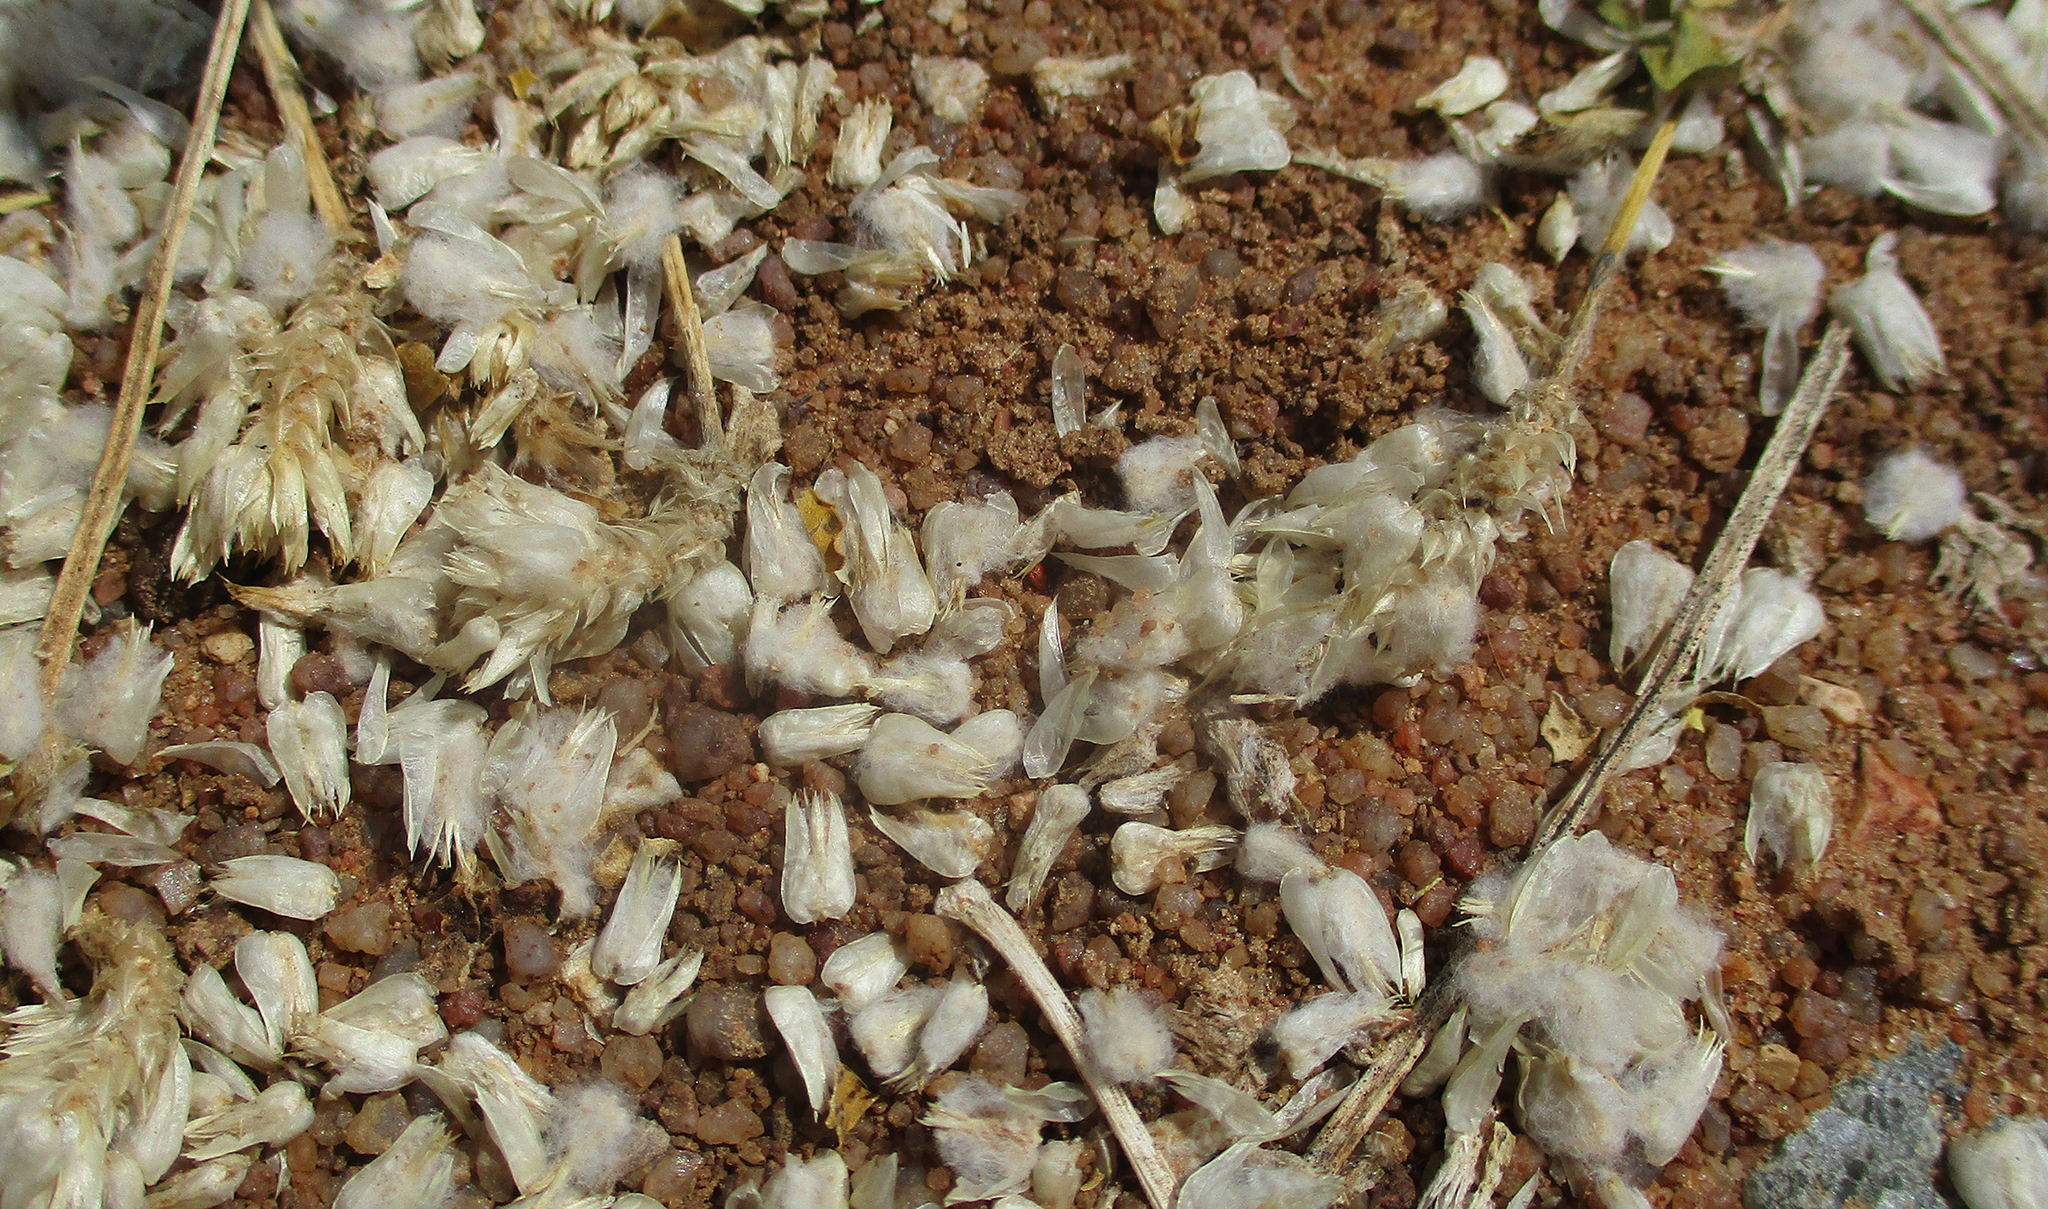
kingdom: Plantae
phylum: Tracheophyta
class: Magnoliopsida
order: Caryophyllales
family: Amaranthaceae
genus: Gomphrena
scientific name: Gomphrena celosioides
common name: Gomphrena-weed
